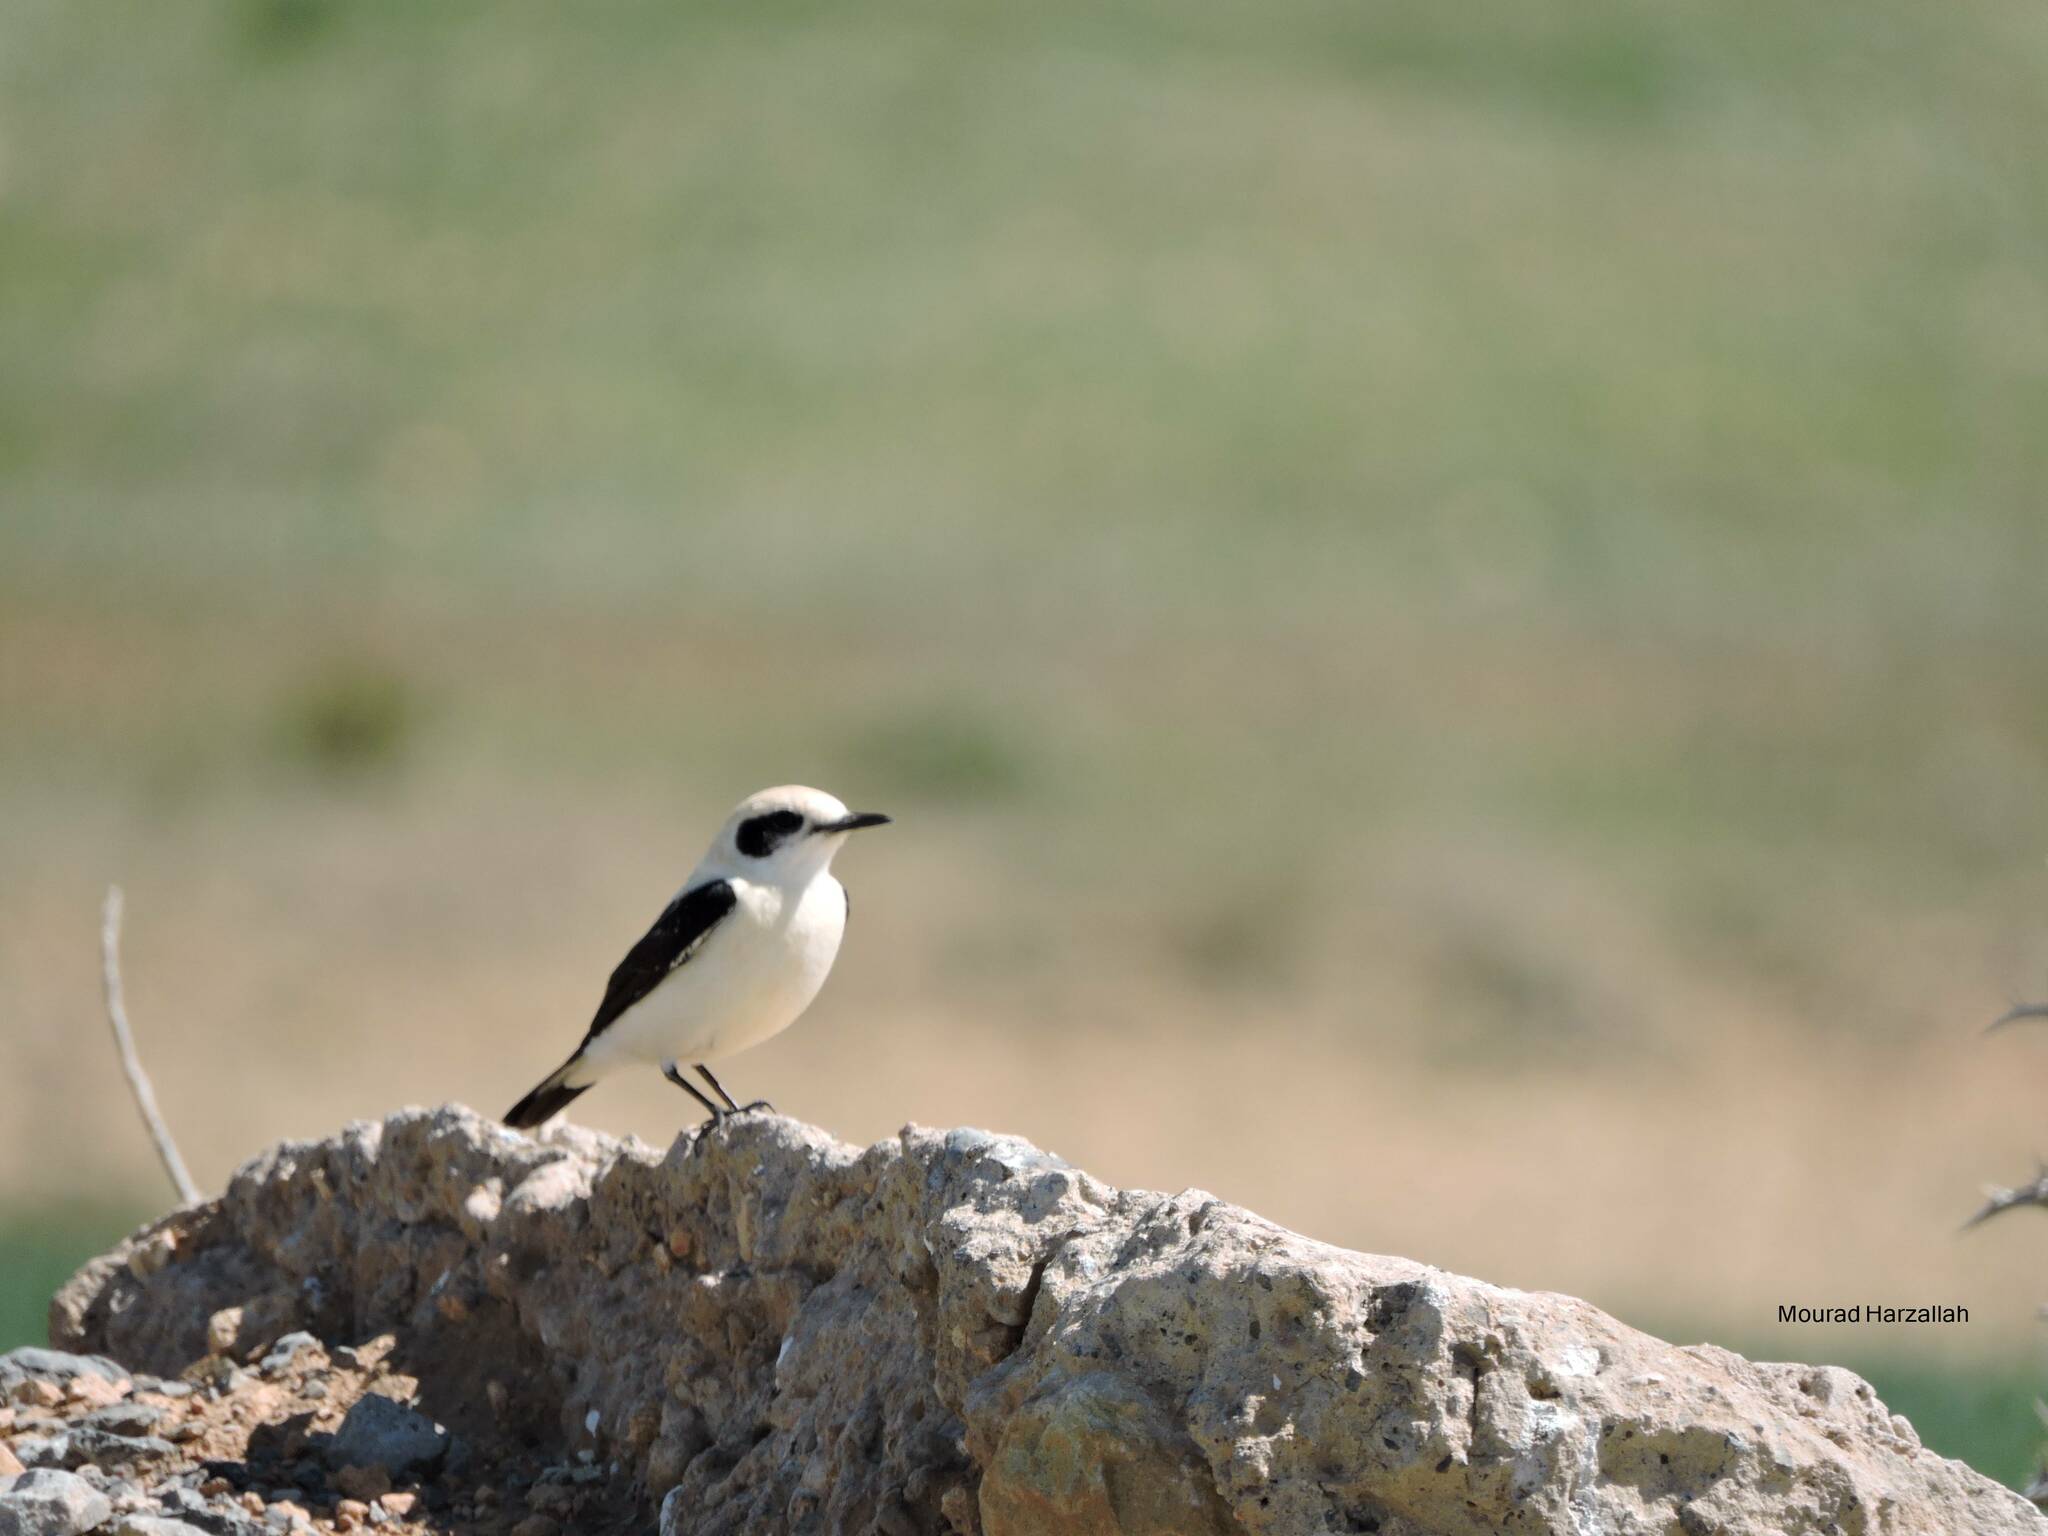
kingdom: Animalia
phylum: Chordata
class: Aves
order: Passeriformes
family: Muscicapidae
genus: Oenanthe
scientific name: Oenanthe hispanica
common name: Black-eared wheatear
